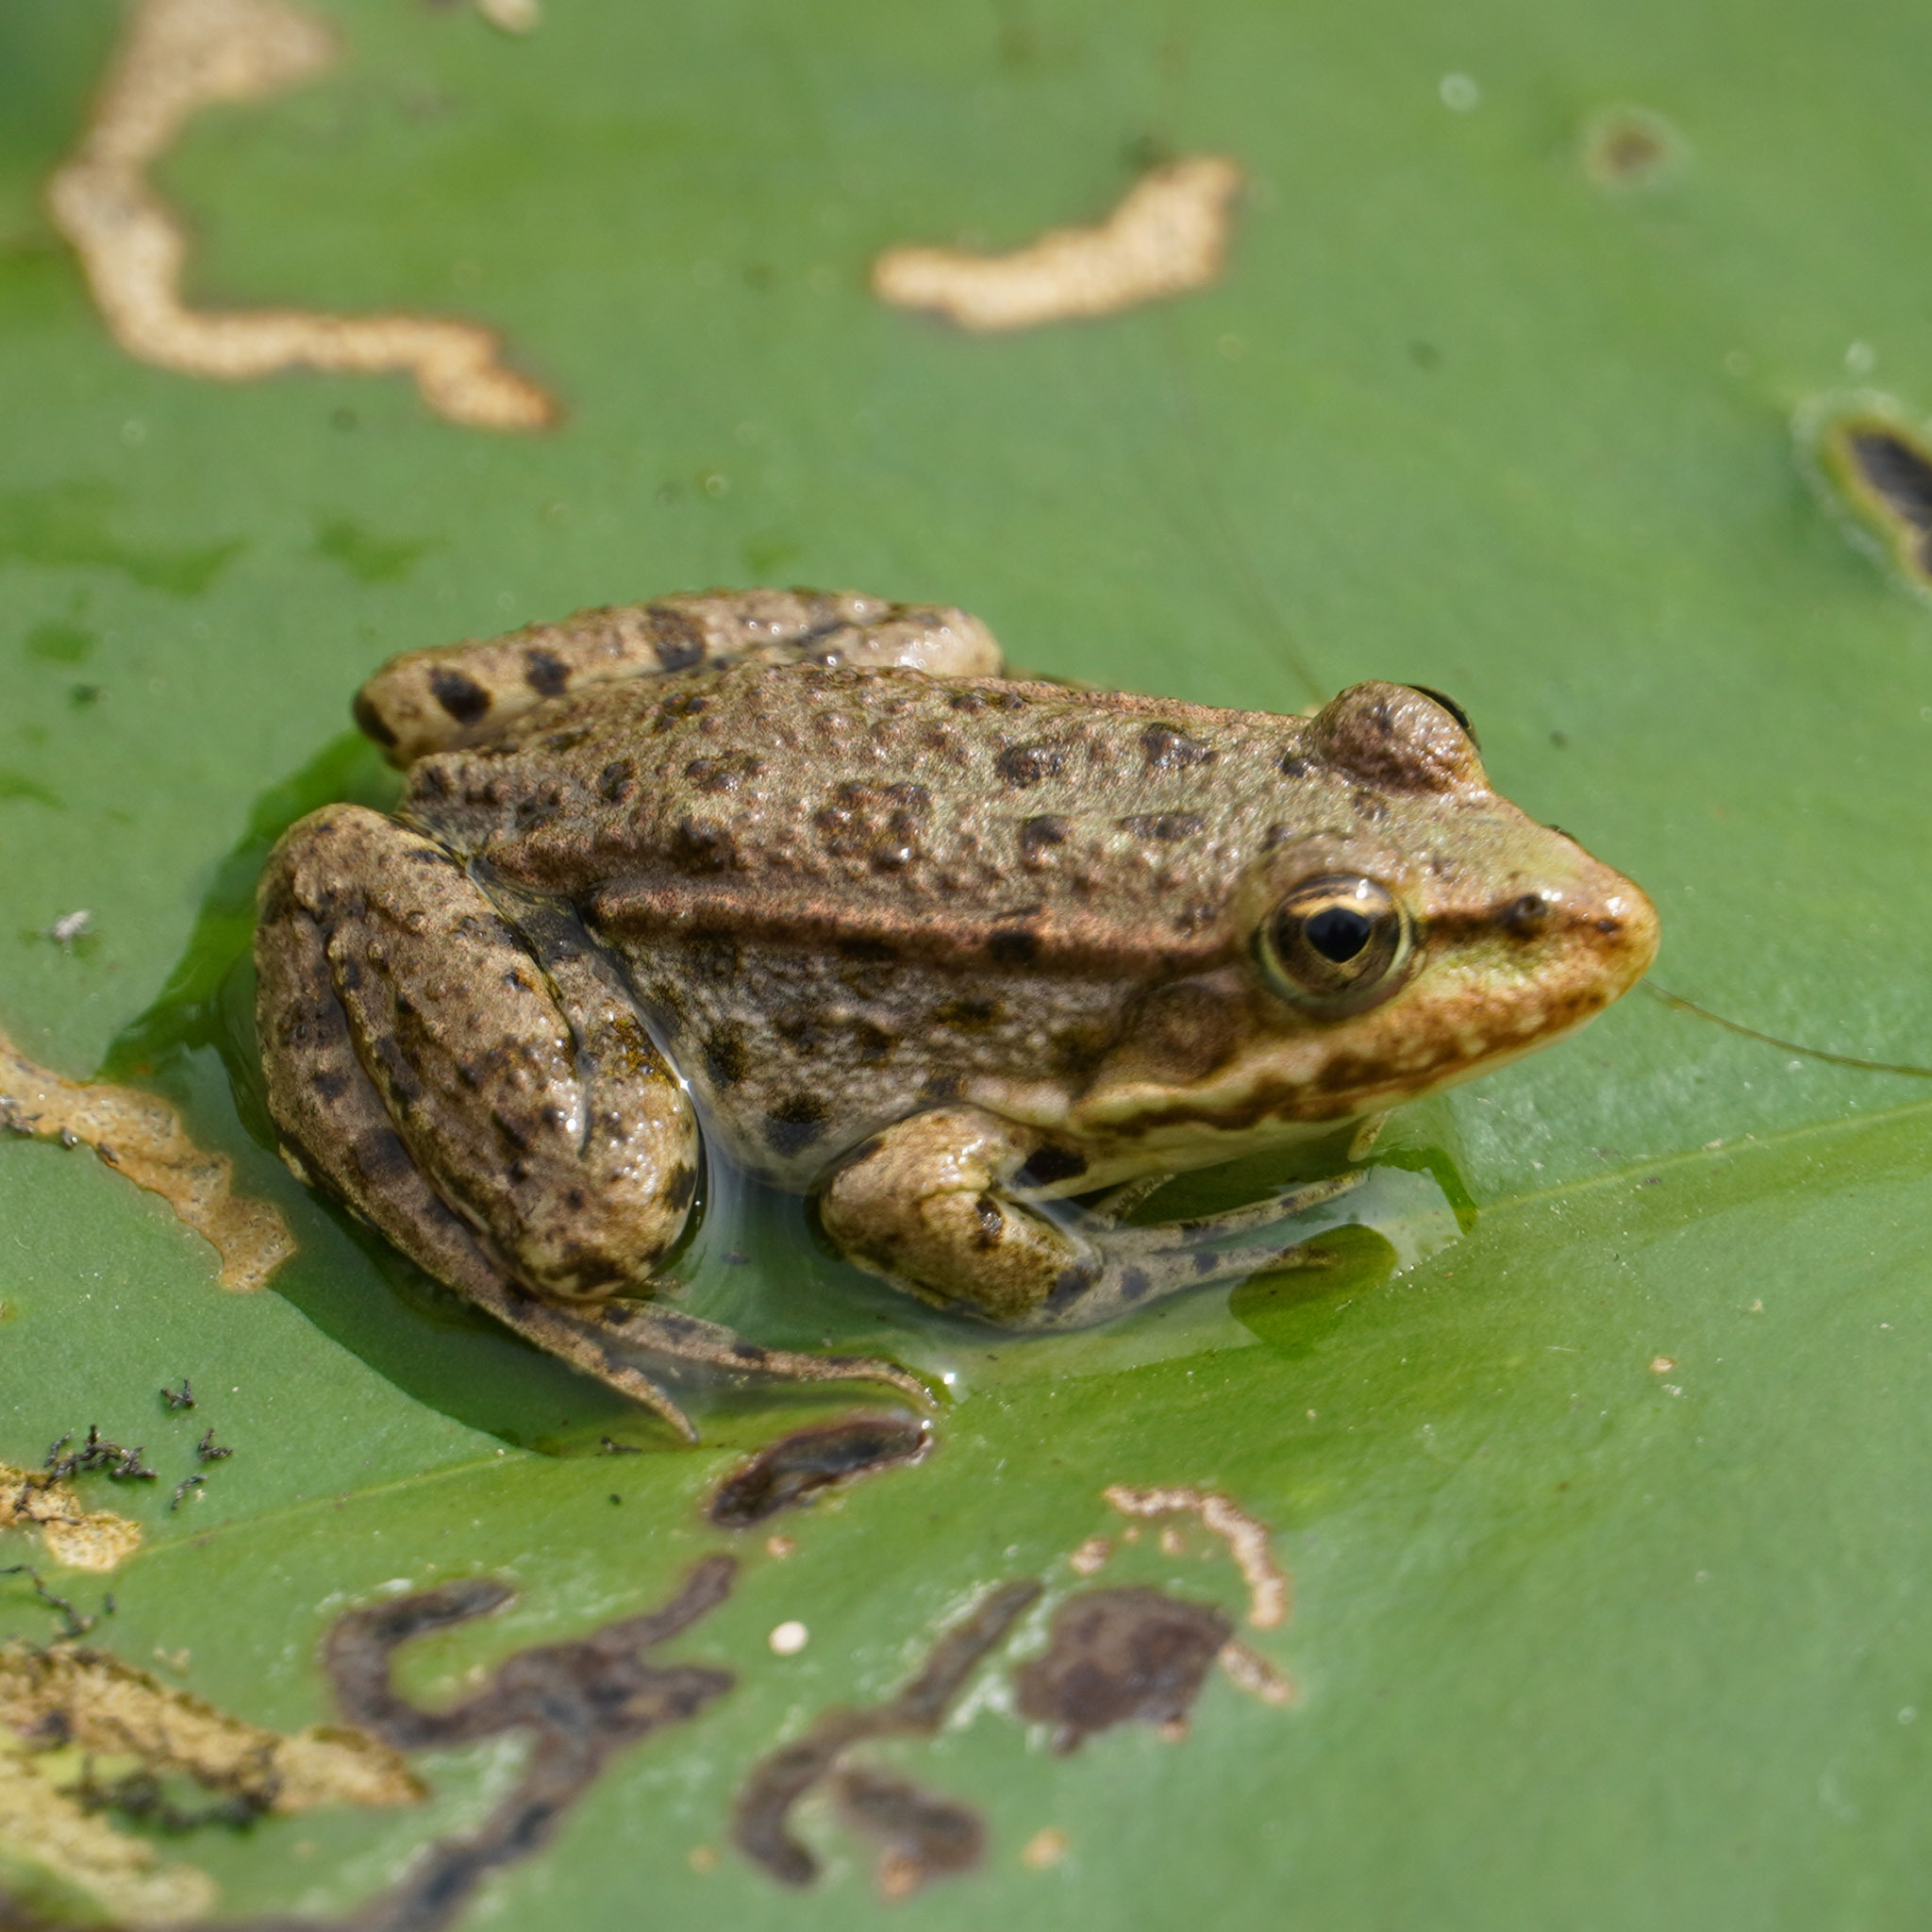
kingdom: Animalia
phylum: Chordata
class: Amphibia
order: Anura
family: Ranidae
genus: Pelophylax
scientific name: Pelophylax ridibundus
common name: Marsh frog
